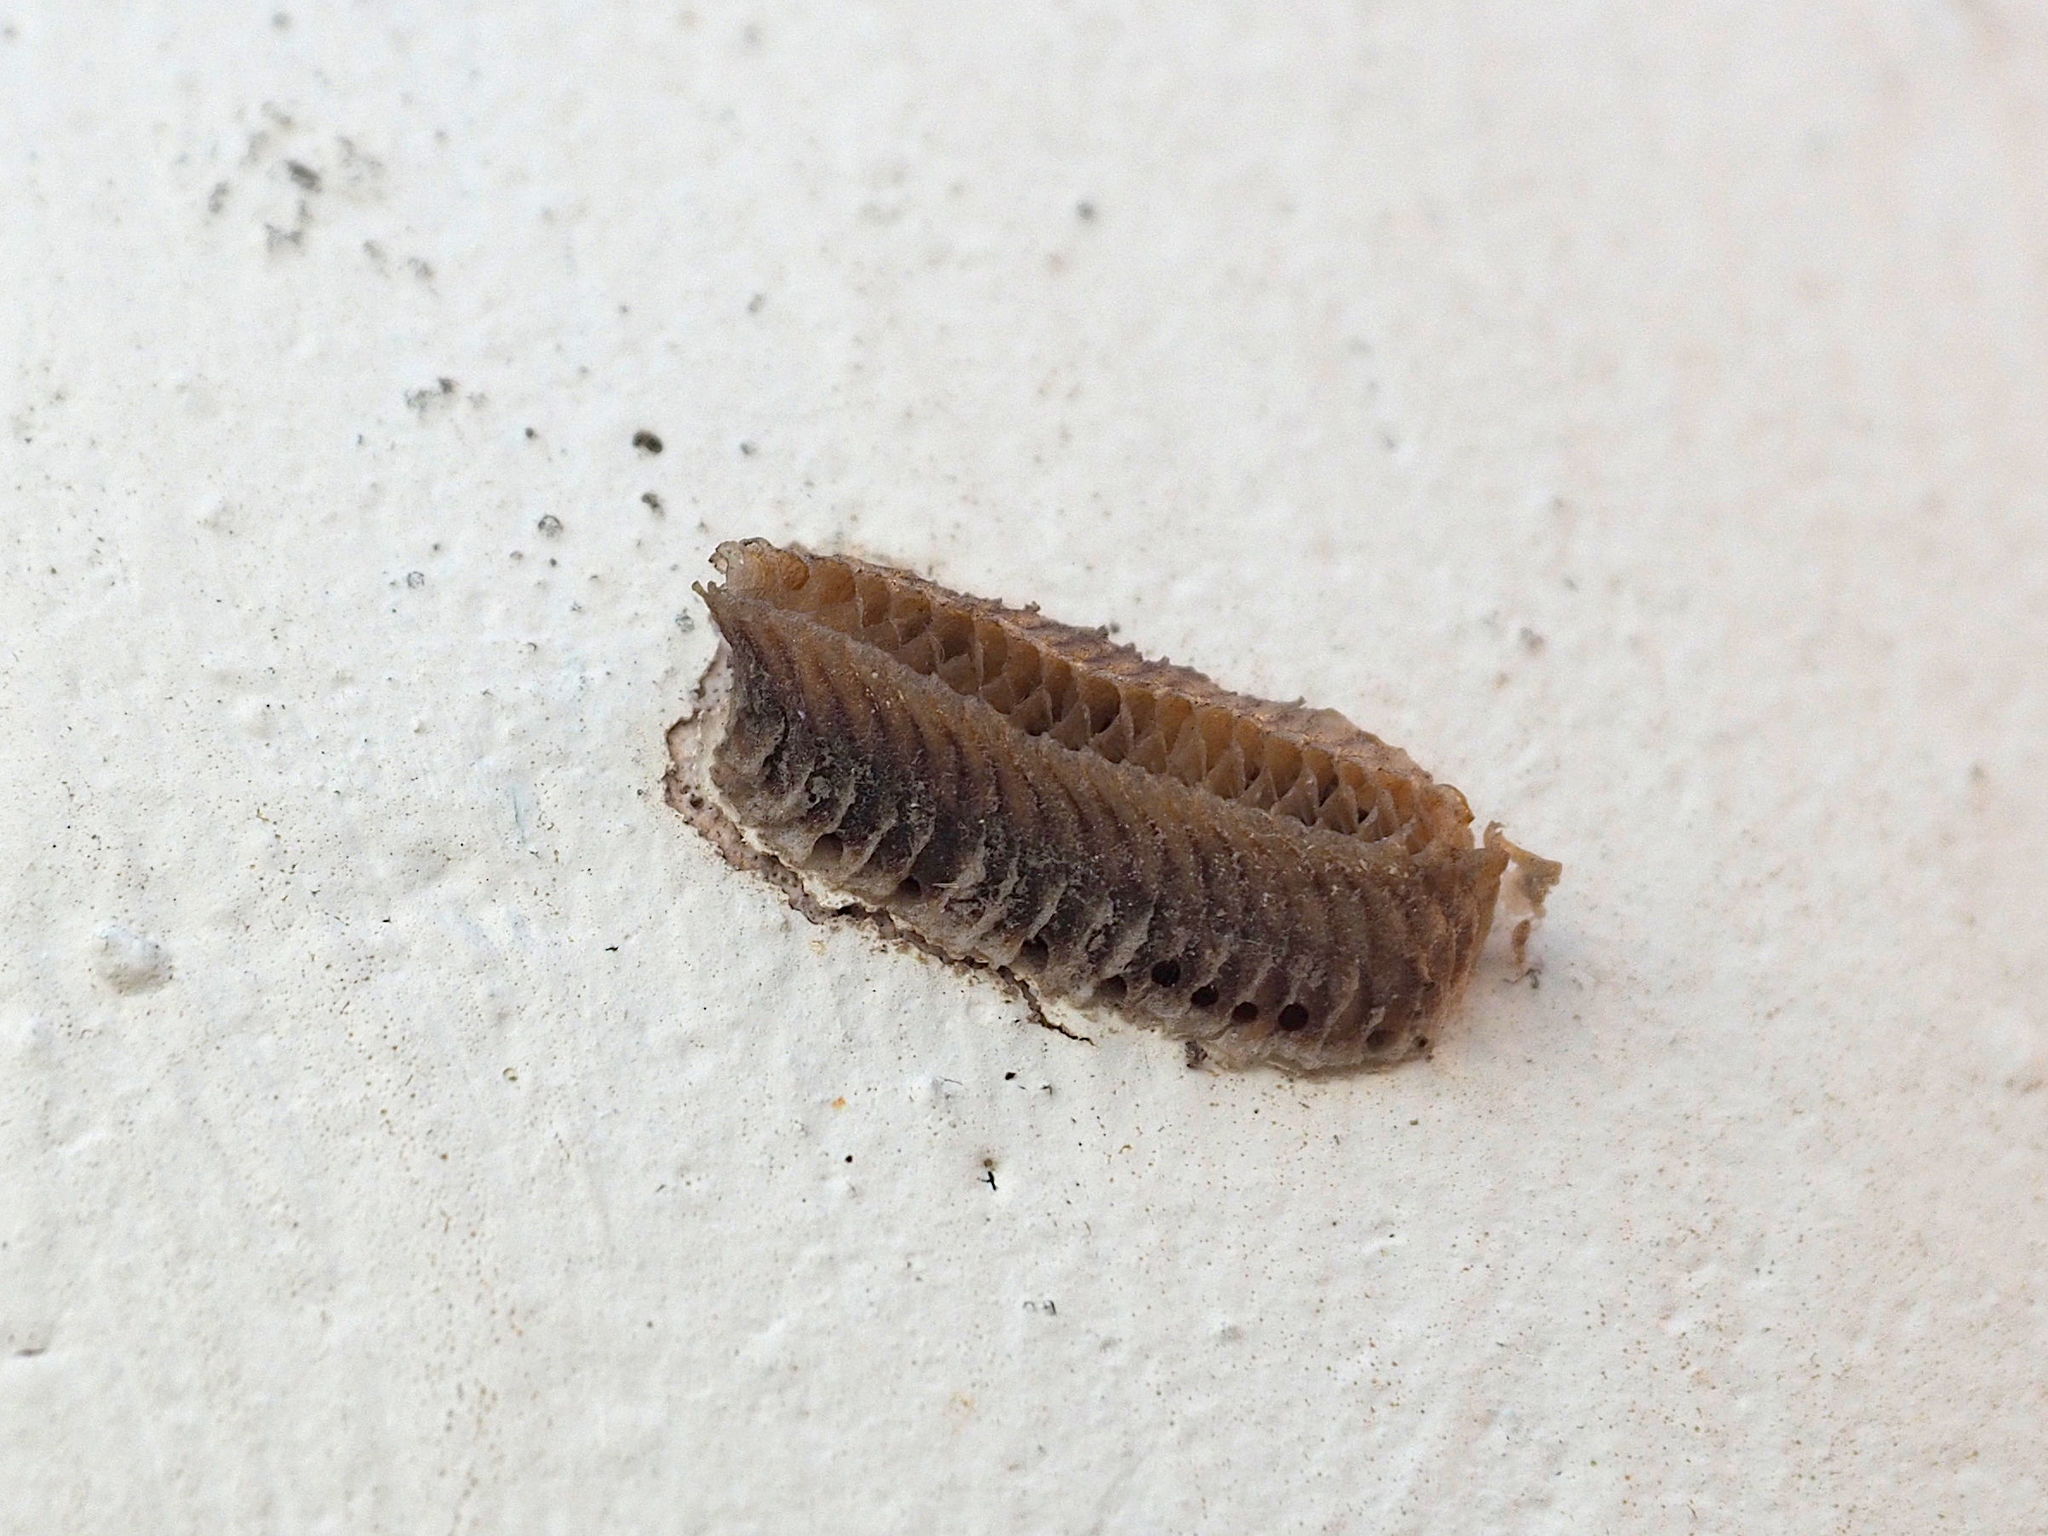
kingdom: Animalia
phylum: Arthropoda
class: Insecta
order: Mantodea
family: Eremiaphilidae
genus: Iris
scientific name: Iris oratoria
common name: Mediterranean mantis
